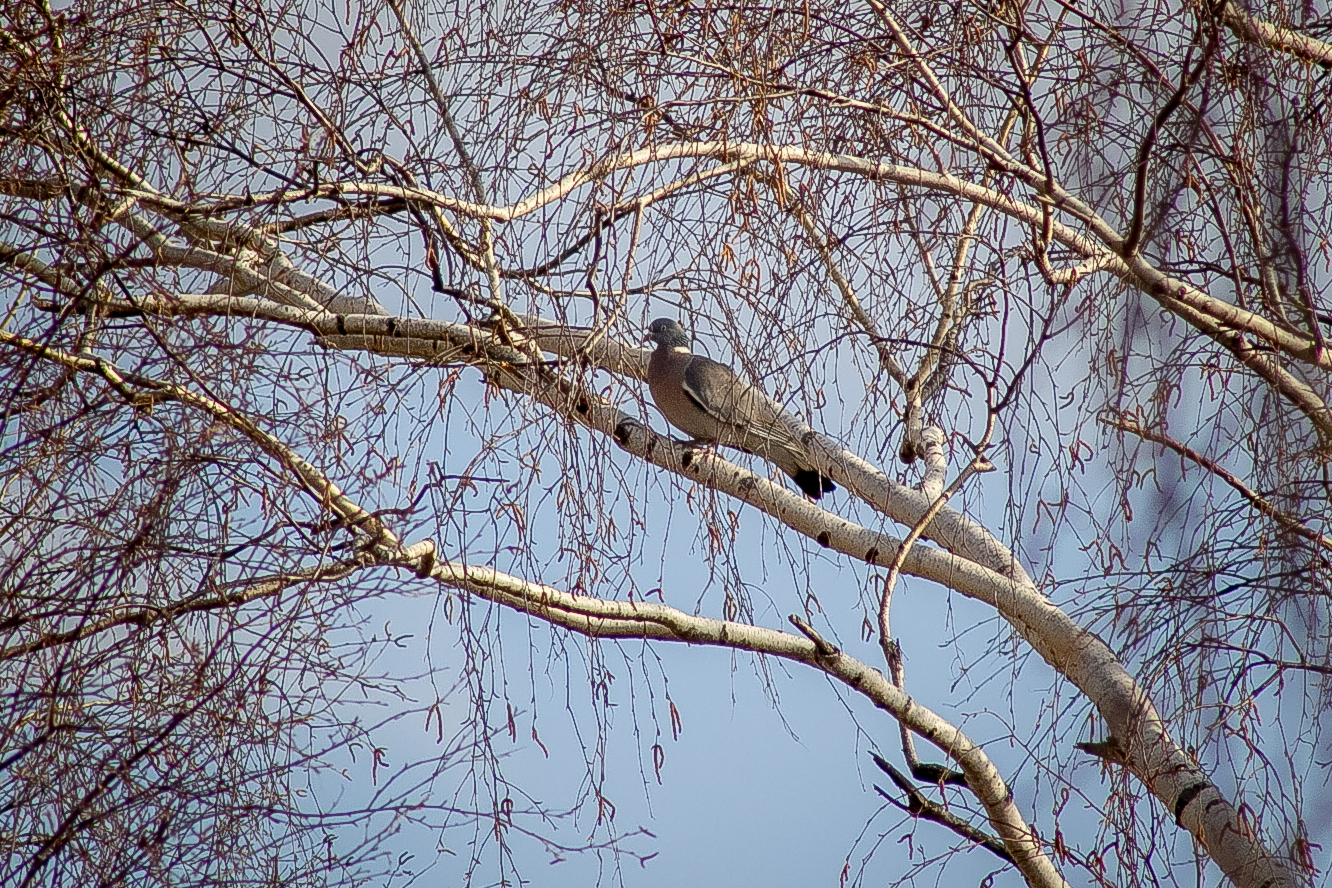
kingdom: Animalia
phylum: Chordata
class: Aves
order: Columbiformes
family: Columbidae
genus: Columba
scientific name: Columba palumbus
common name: Common wood pigeon
